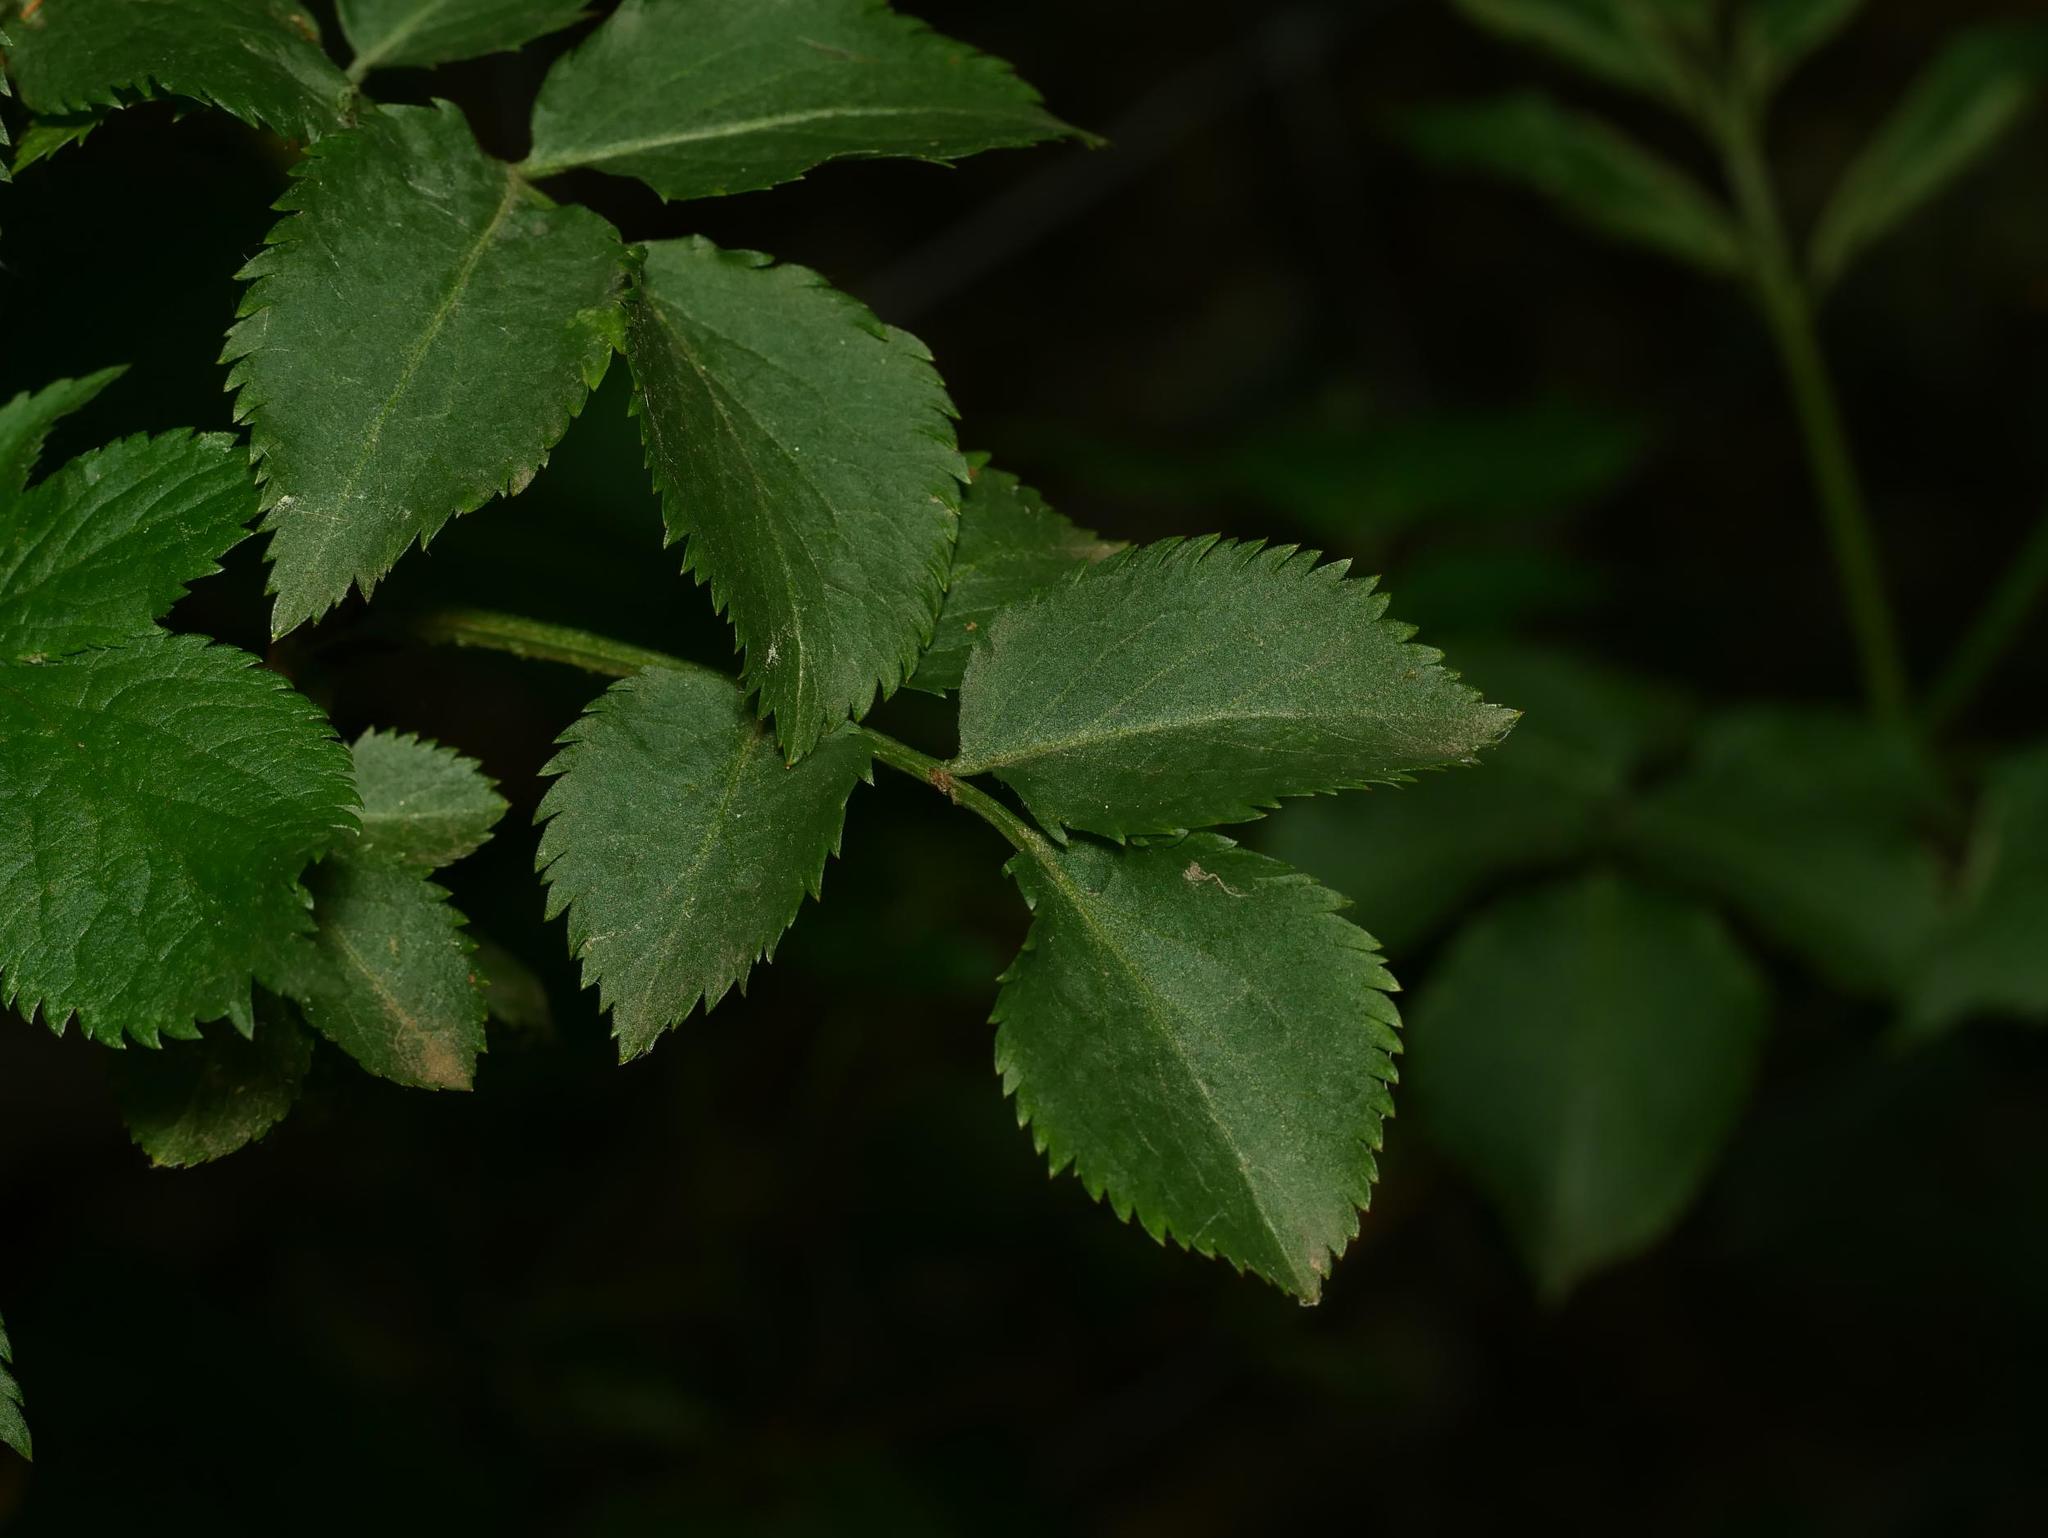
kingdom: Plantae
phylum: Tracheophyta
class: Magnoliopsida
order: Dipsacales
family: Viburnaceae
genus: Sambucus
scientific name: Sambucus nigra
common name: Elder
